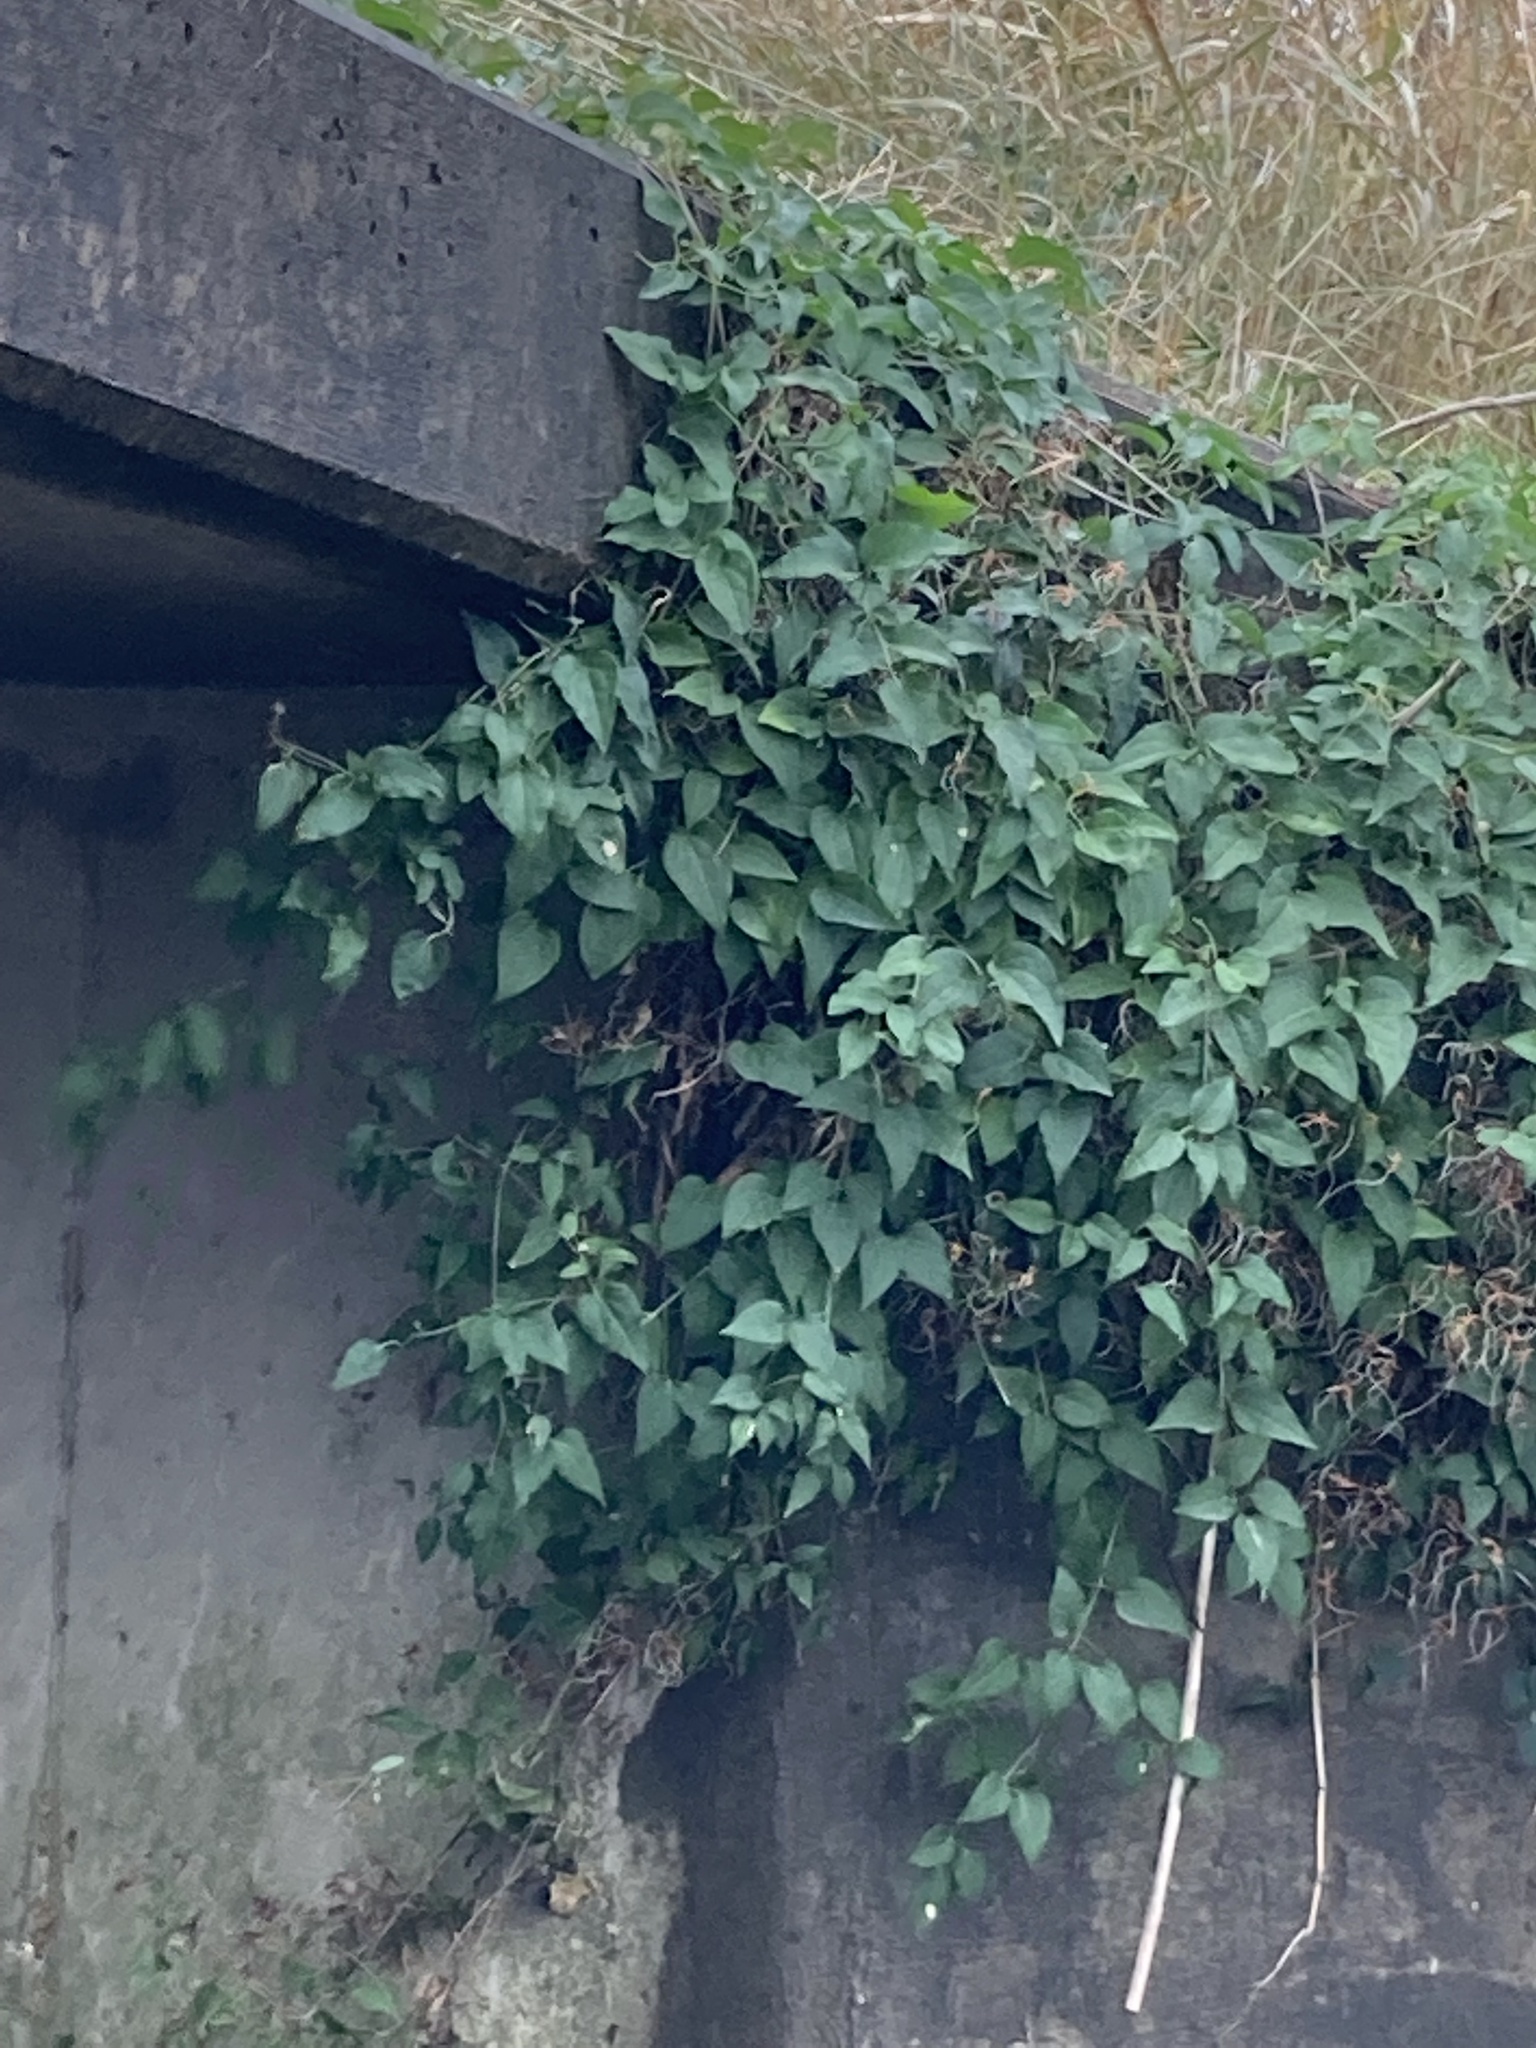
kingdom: Plantae
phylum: Tracheophyta
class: Magnoliopsida
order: Ranunculales
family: Ranunculaceae
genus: Clematis
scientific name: Clematis terniflora
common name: Sweet autumn clematis
